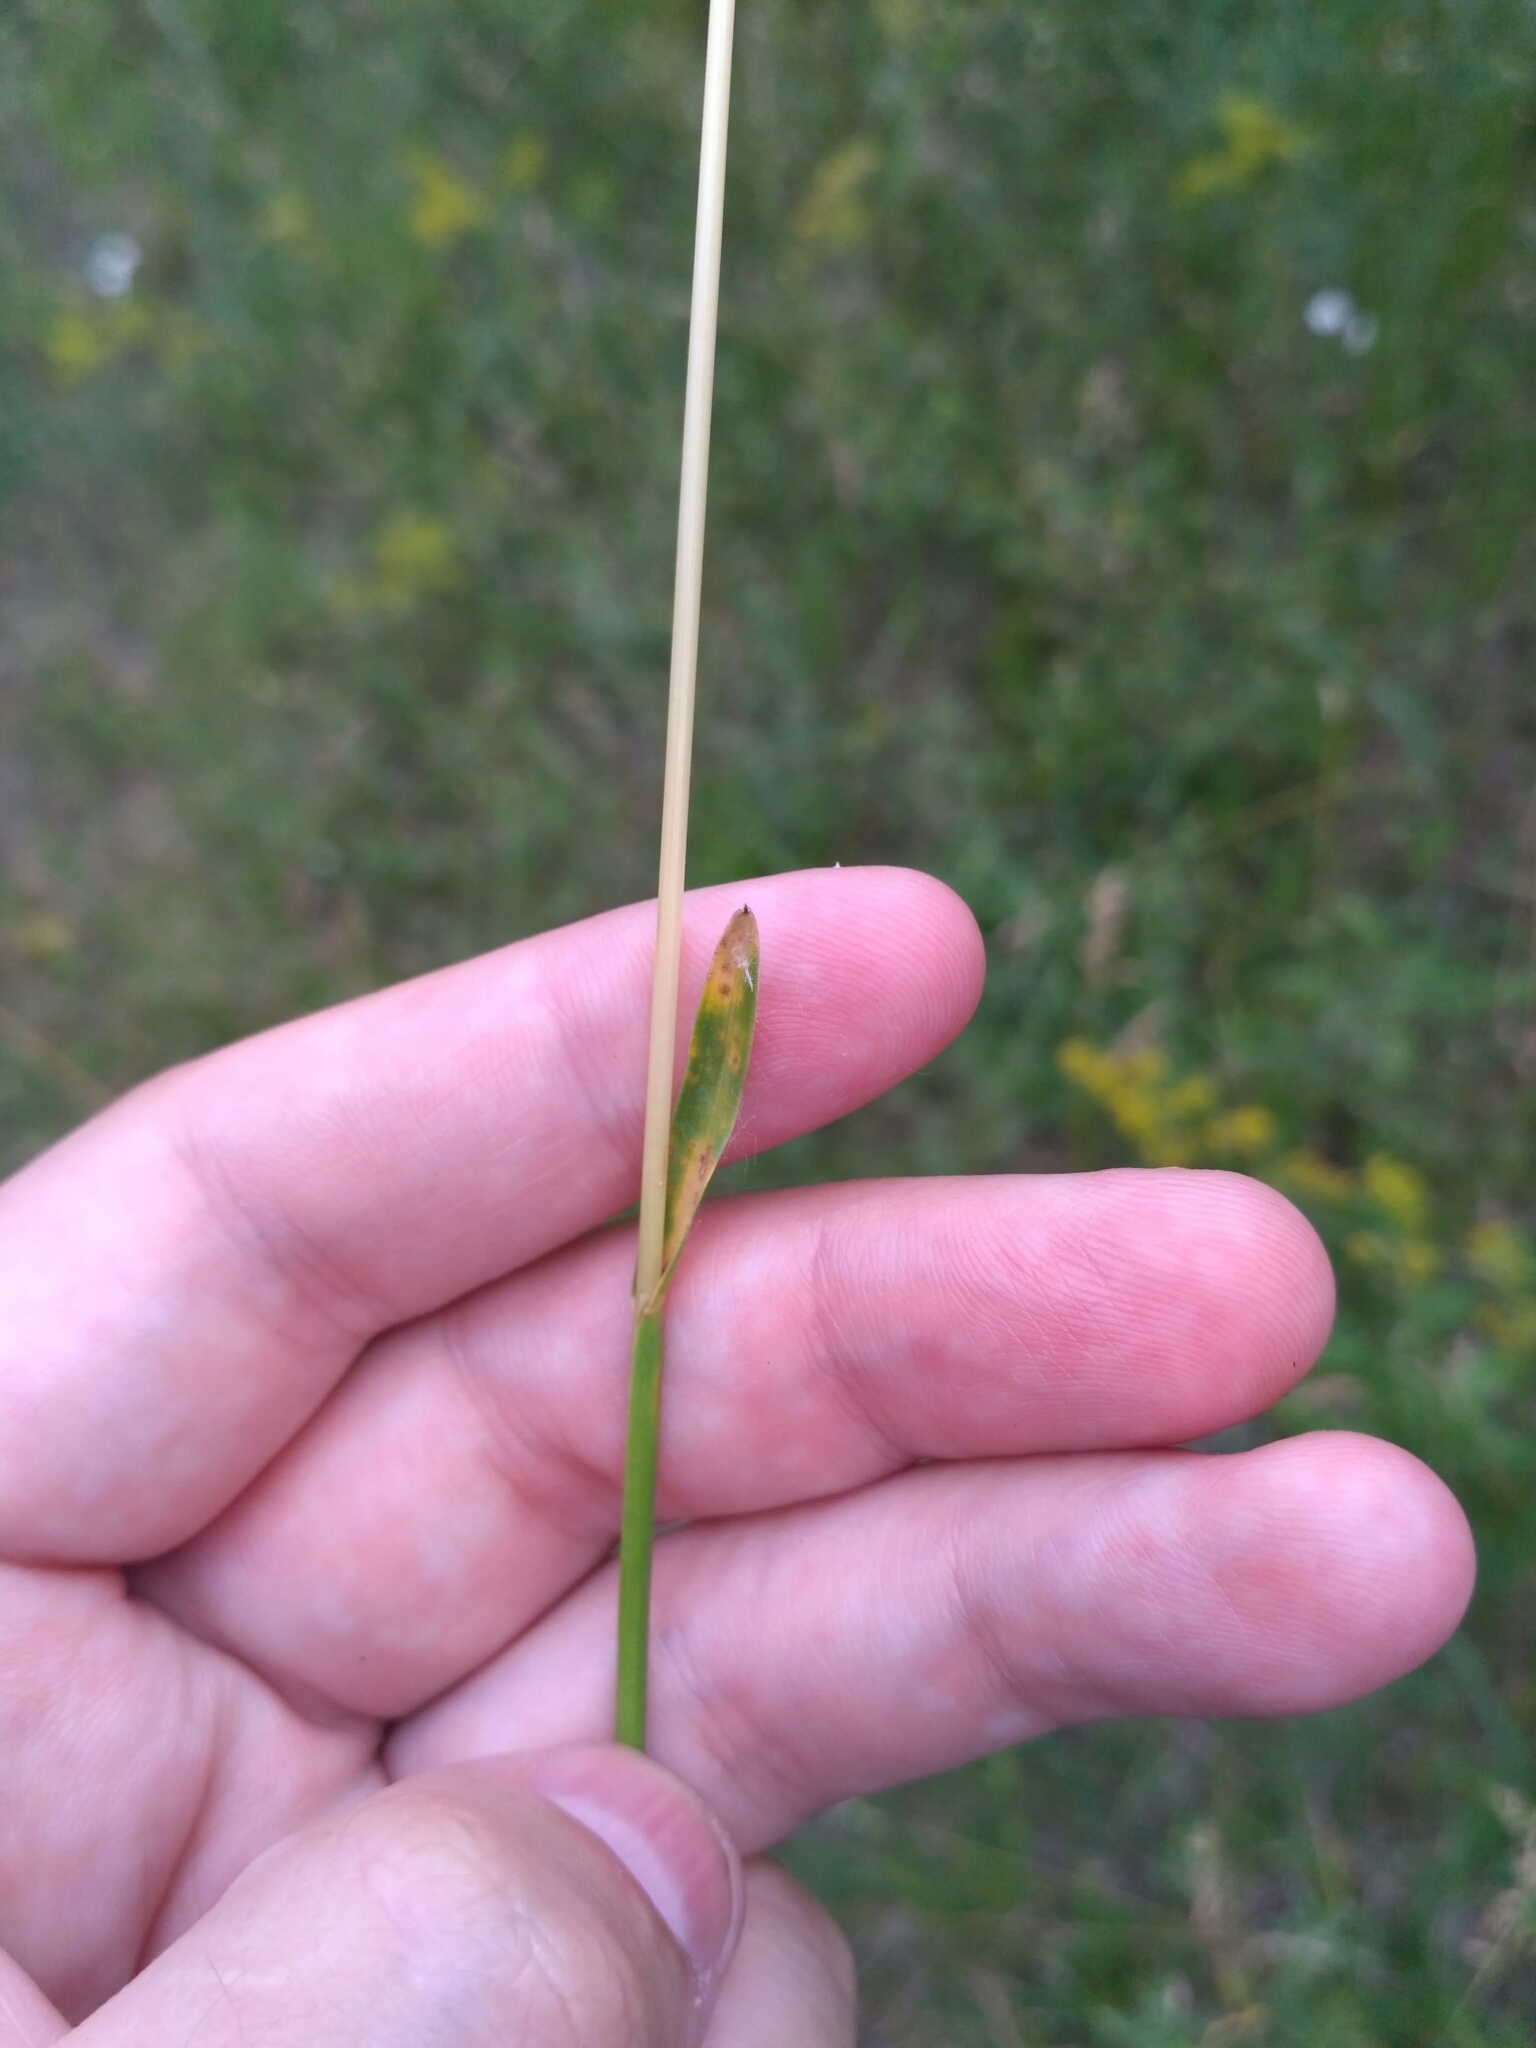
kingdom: Plantae
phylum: Tracheophyta
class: Liliopsida
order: Poales
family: Poaceae
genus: Poa
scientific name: Poa pratensis
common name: Kentucky bluegrass
